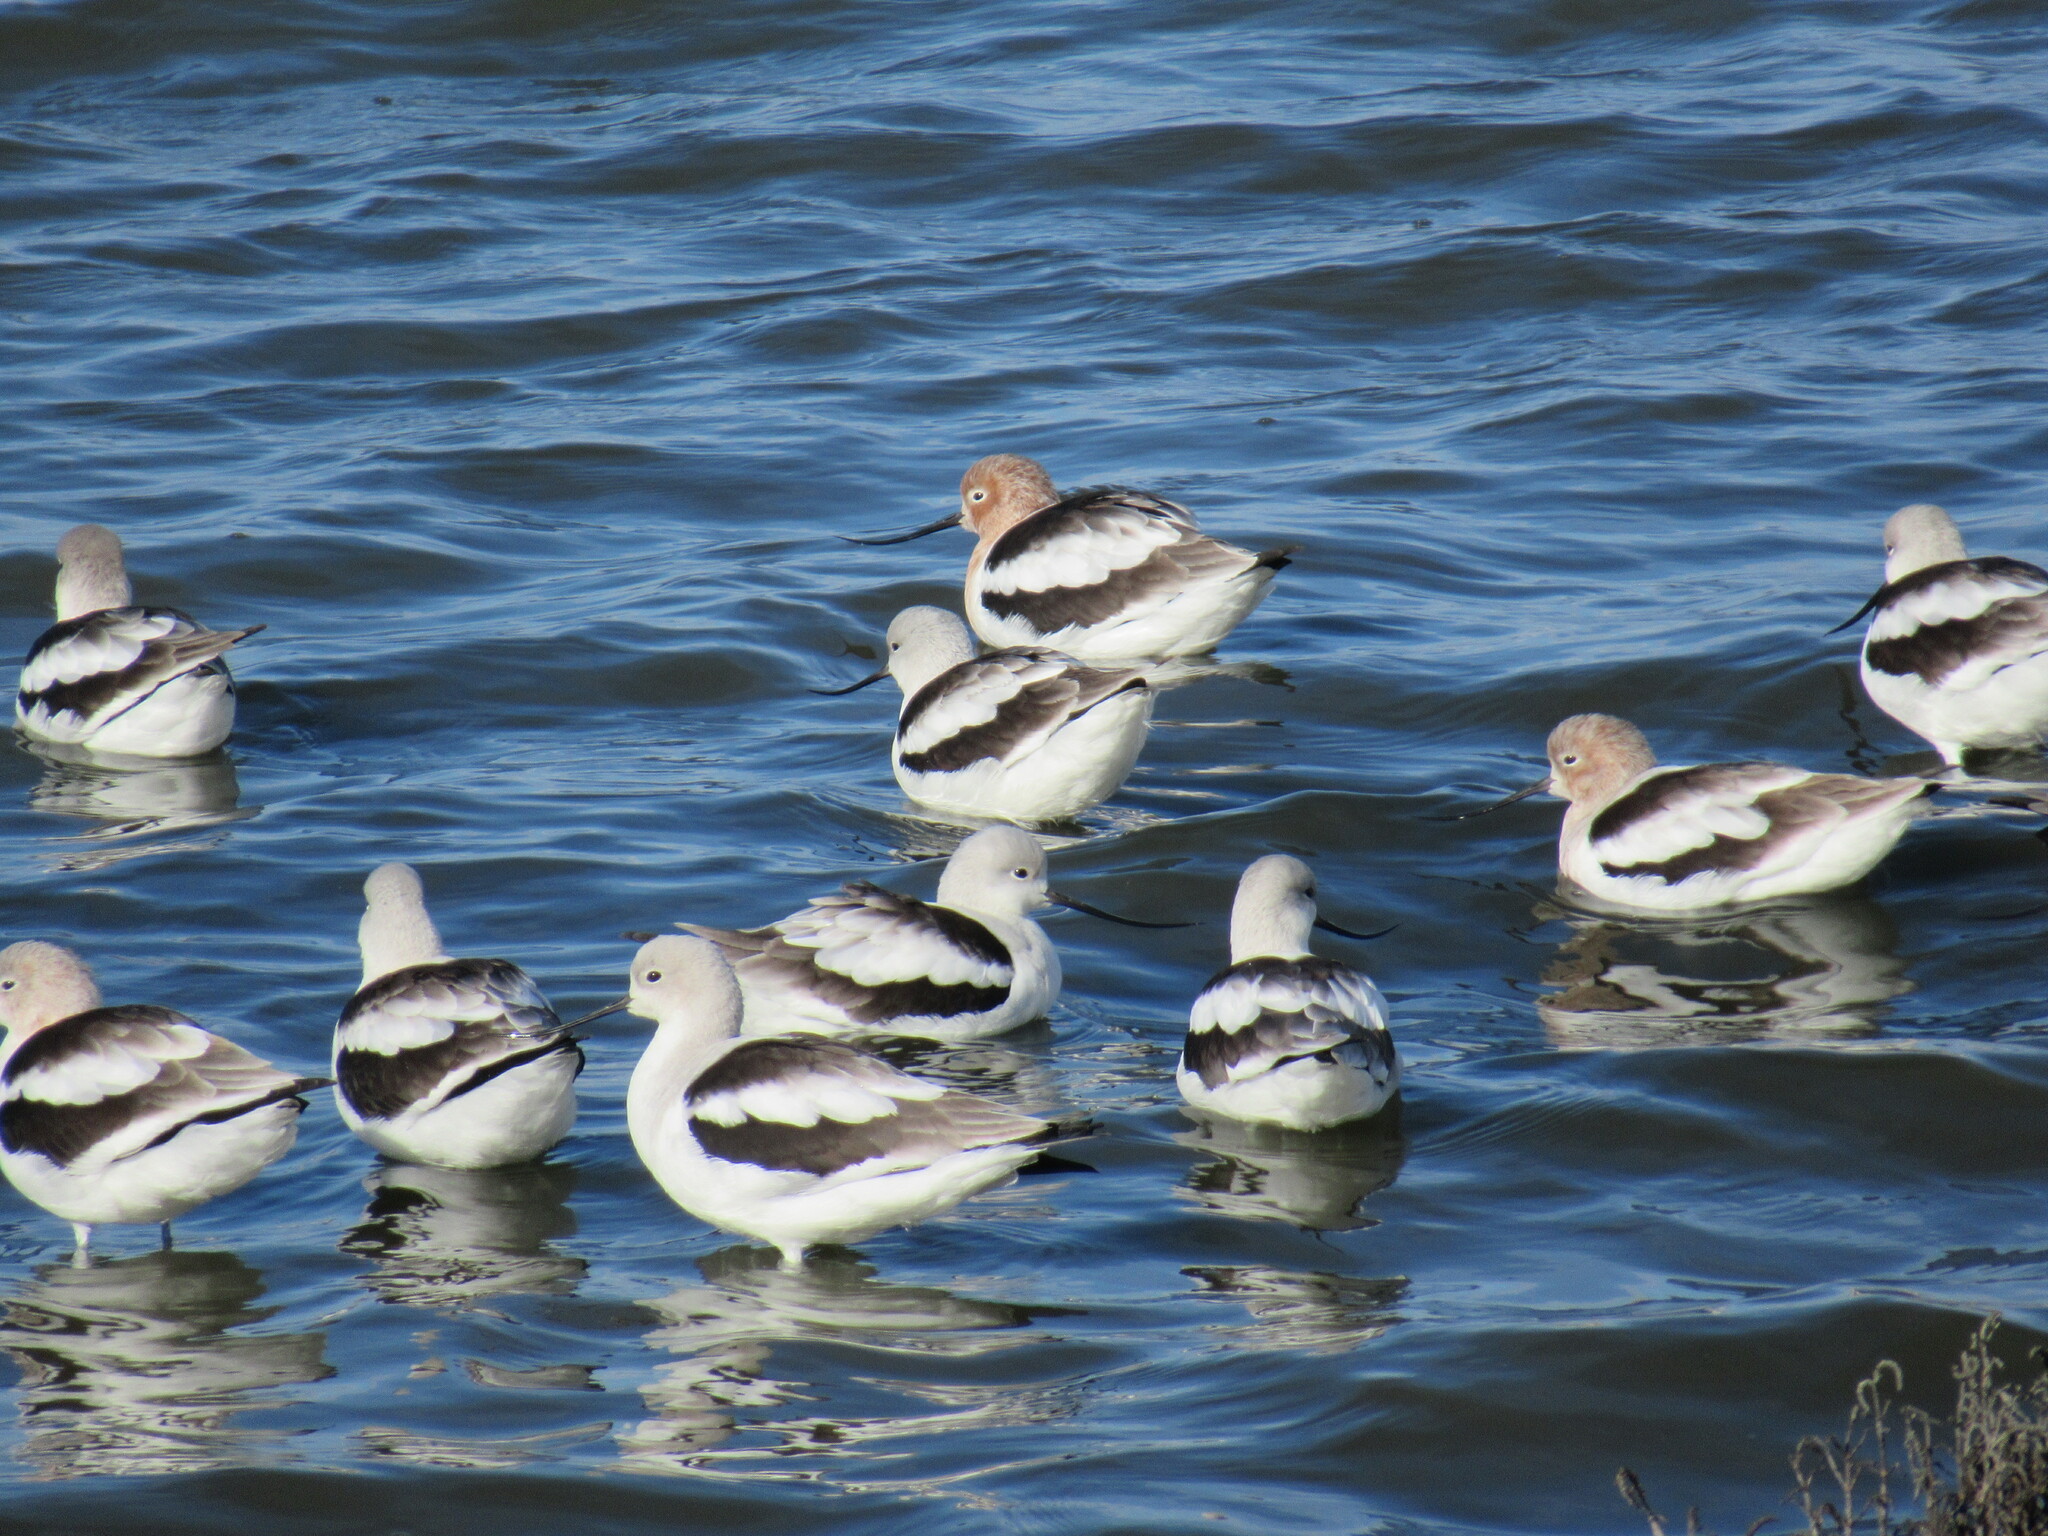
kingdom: Animalia
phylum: Chordata
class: Aves
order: Charadriiformes
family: Recurvirostridae
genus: Recurvirostra
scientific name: Recurvirostra americana
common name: American avocet
